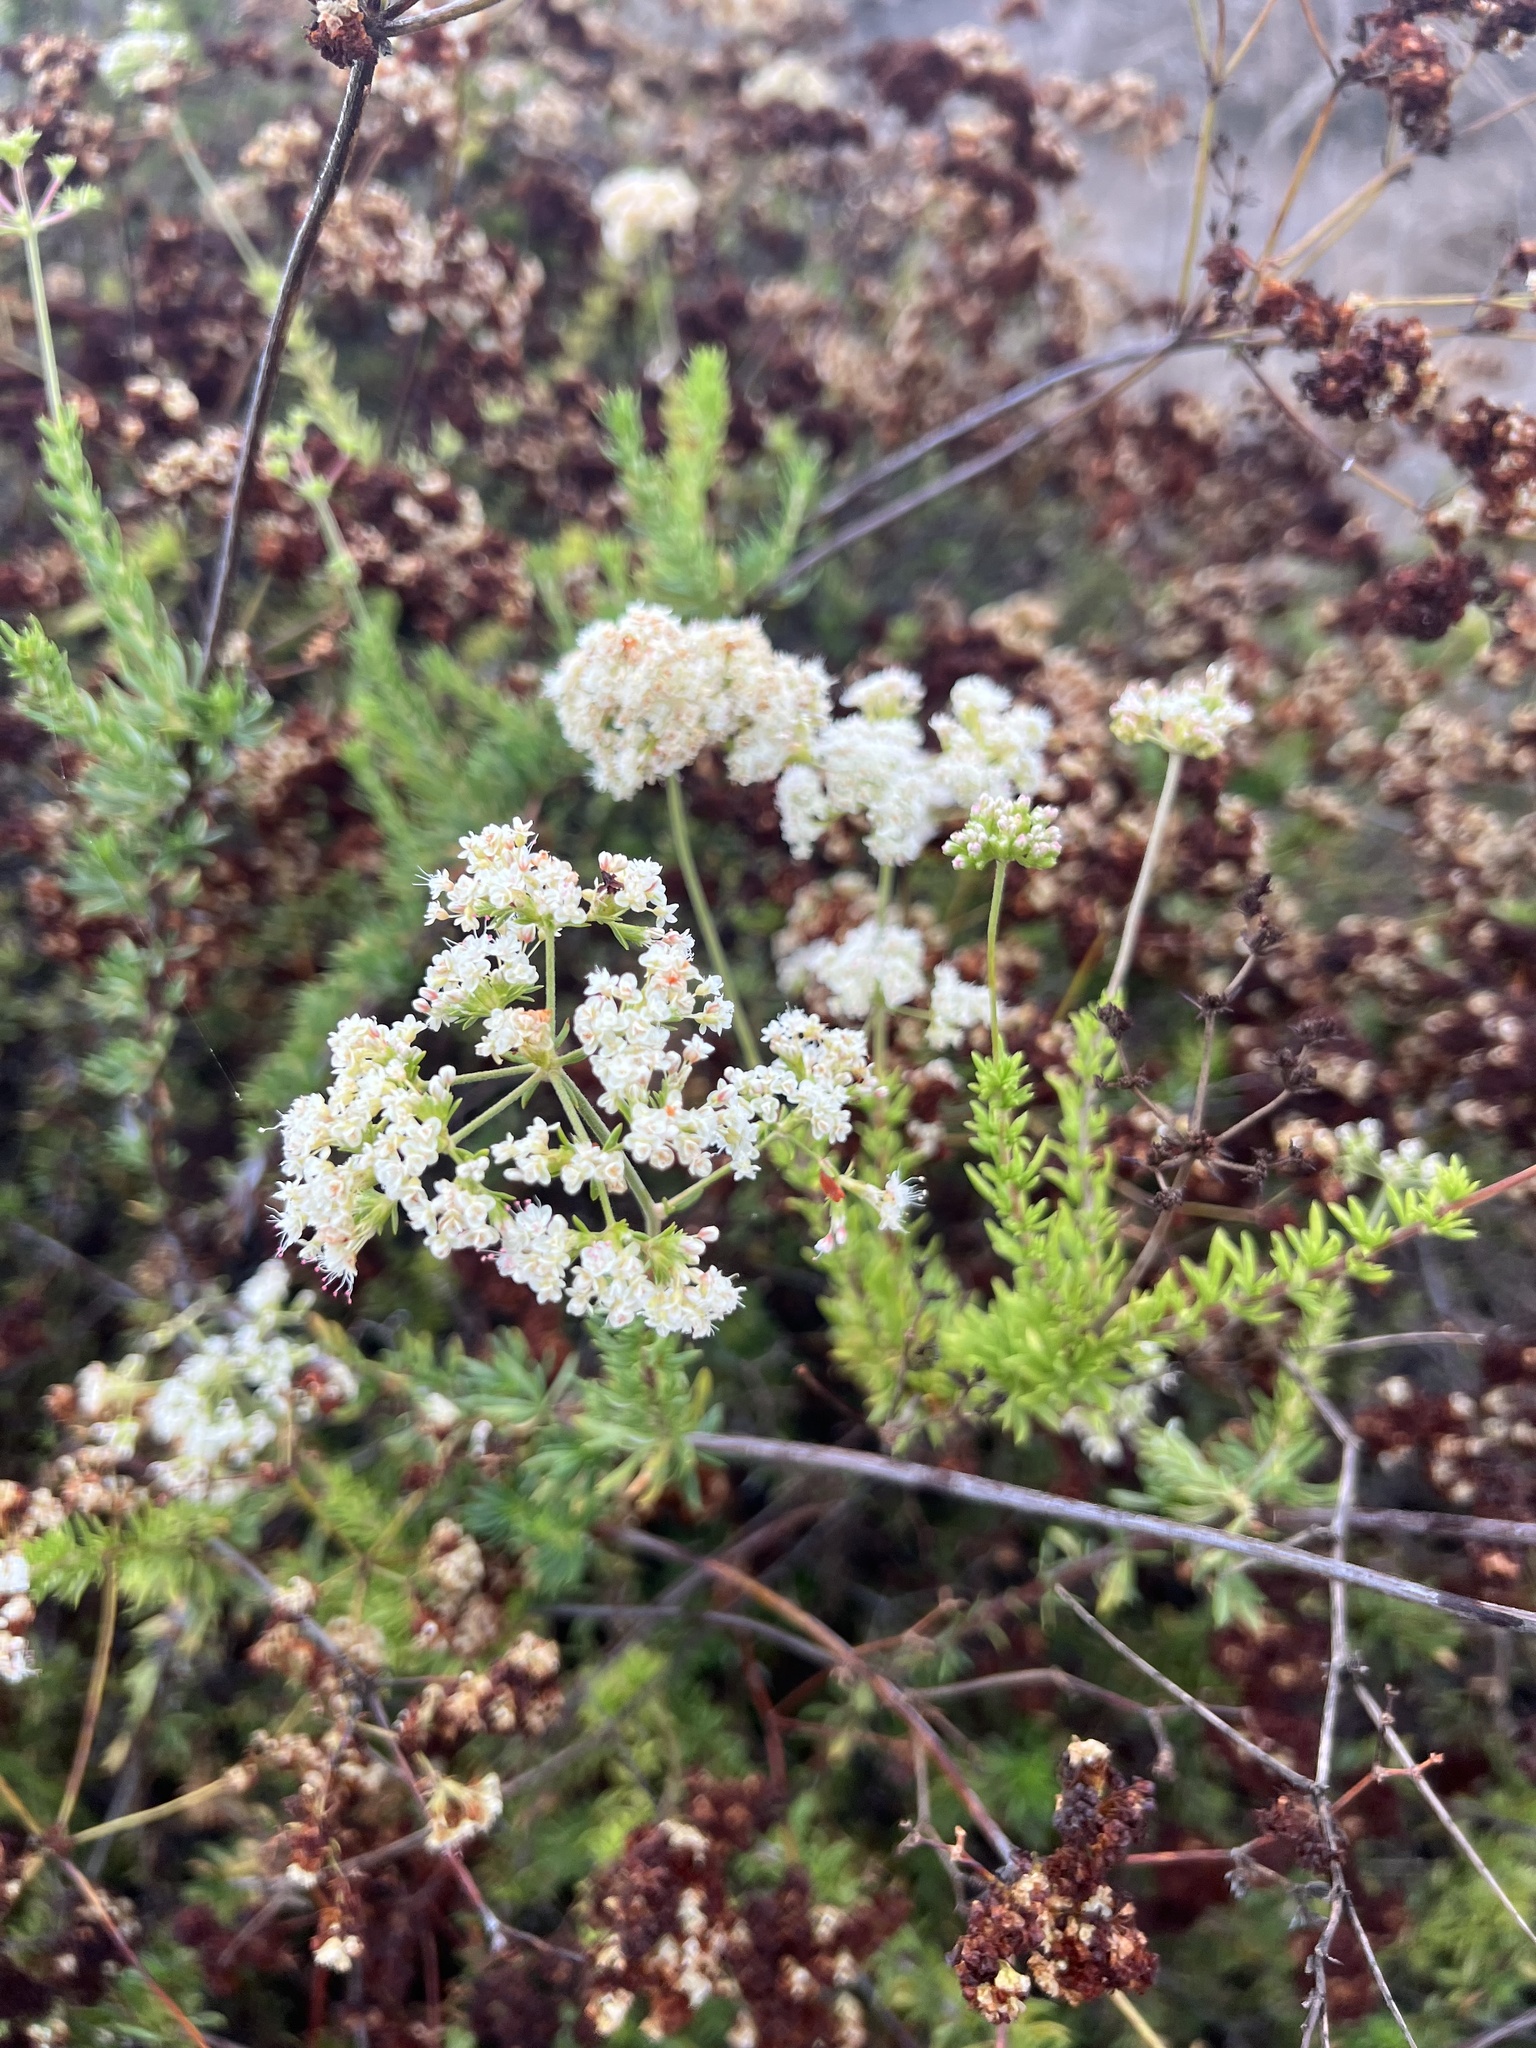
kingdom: Plantae
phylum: Tracheophyta
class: Magnoliopsida
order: Caryophyllales
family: Polygonaceae
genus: Eriogonum
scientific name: Eriogonum fasciculatum
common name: California wild buckwheat
